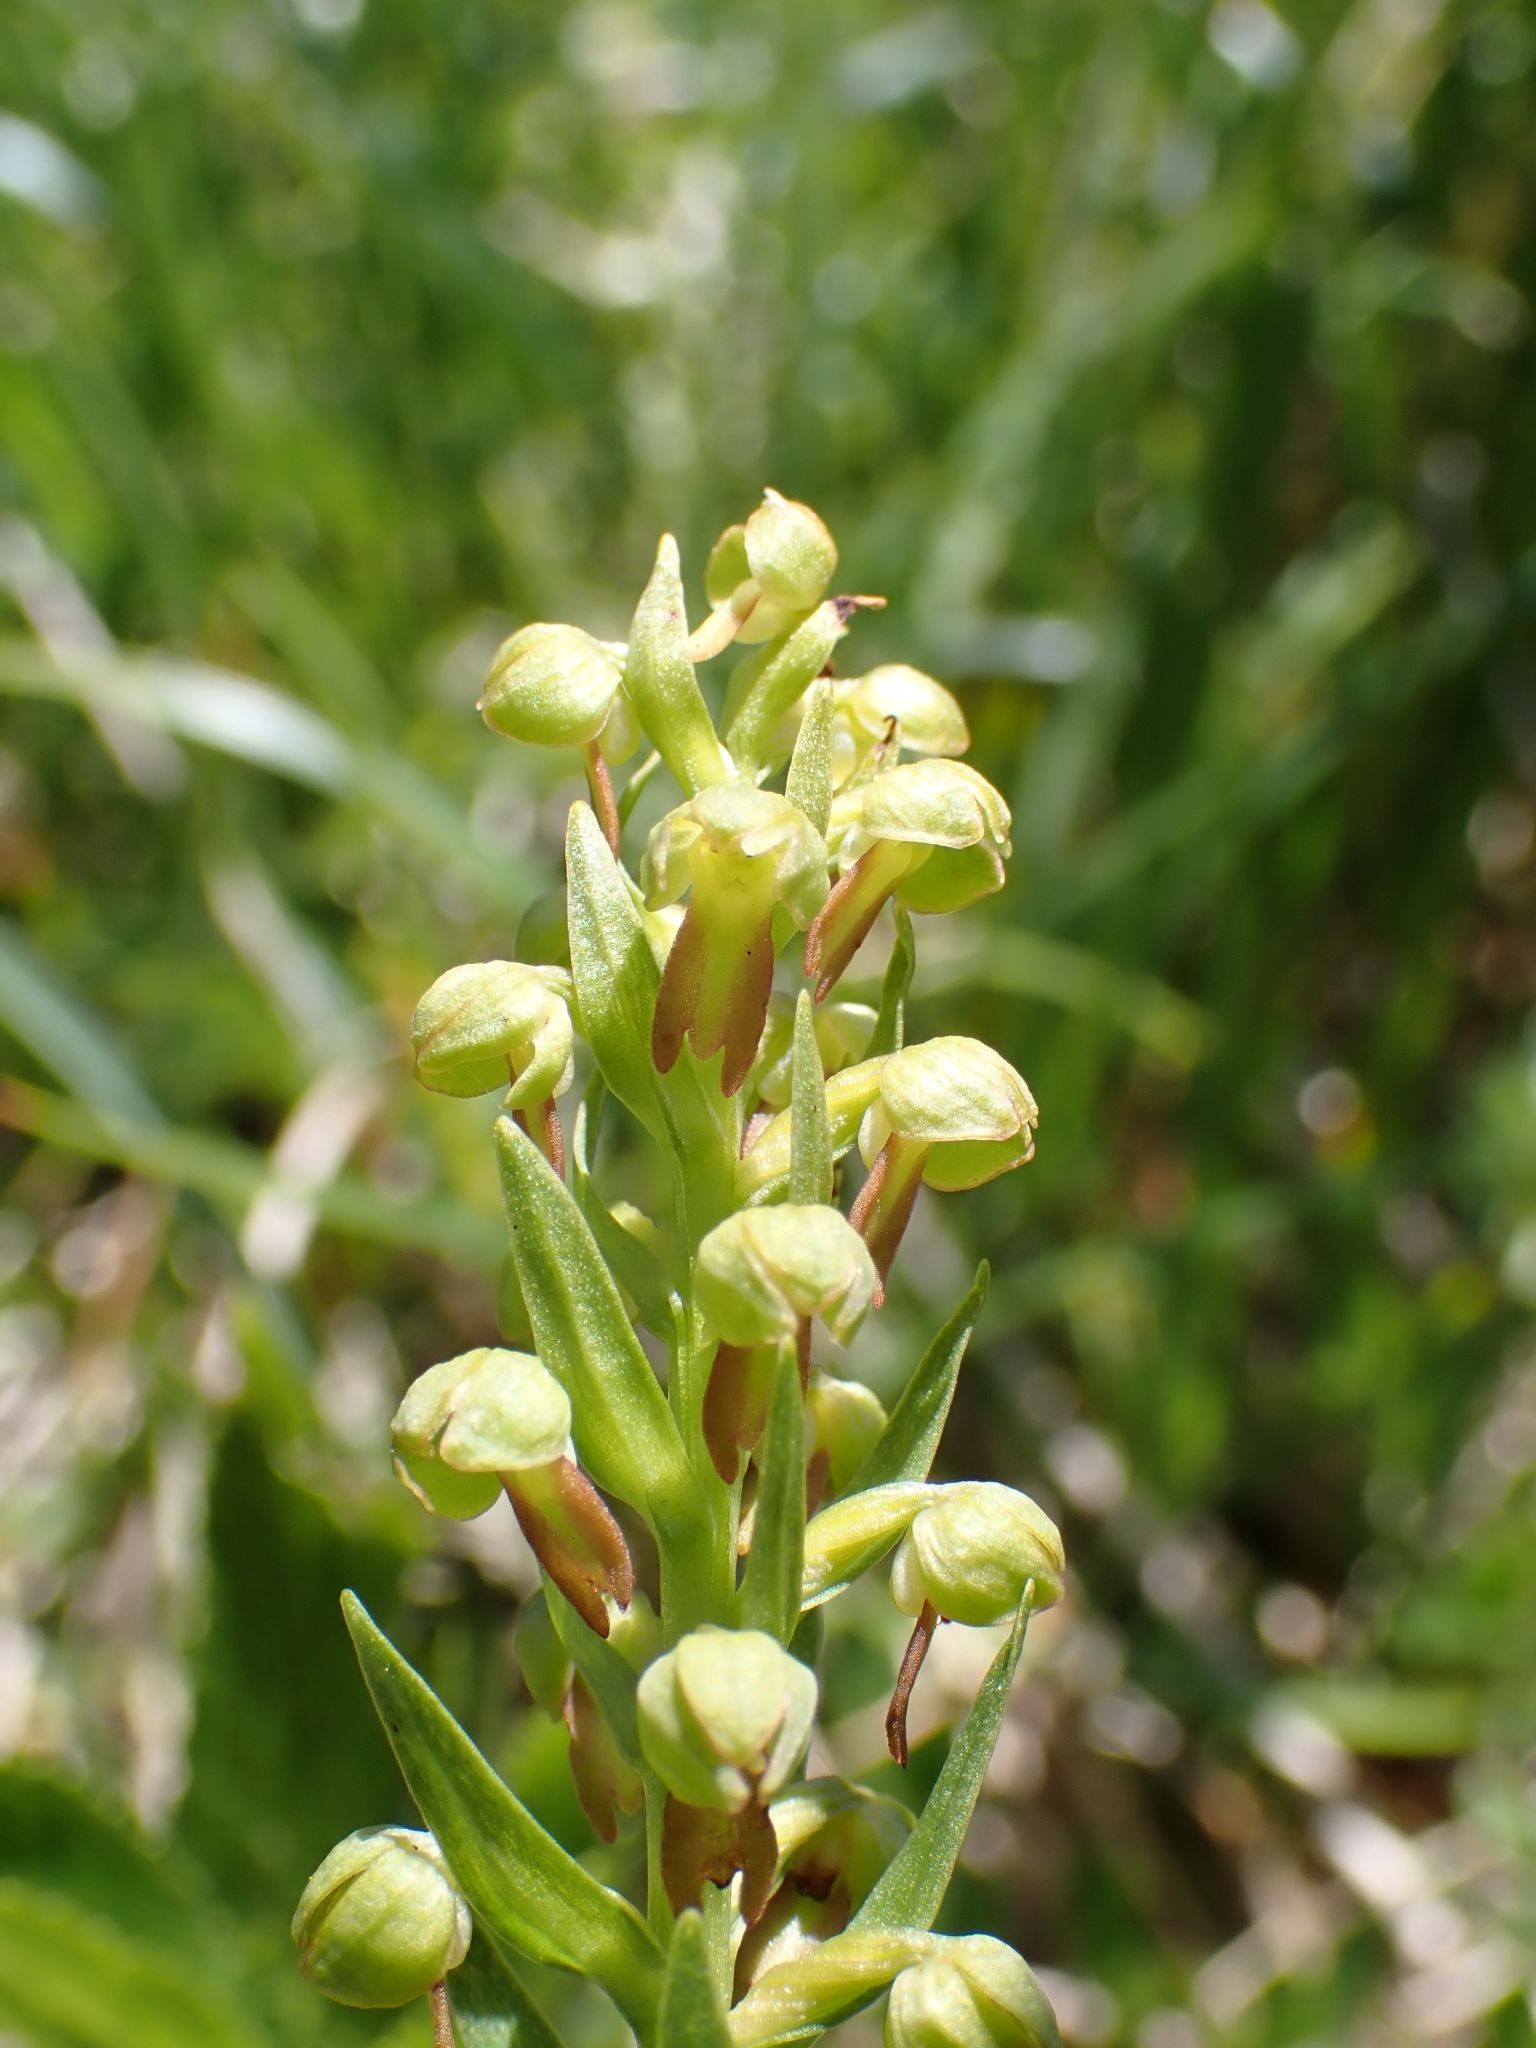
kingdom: Plantae
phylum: Tracheophyta
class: Liliopsida
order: Asparagales
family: Orchidaceae
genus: Dactylorhiza
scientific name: Dactylorhiza viridis
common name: Longbract frog orchid
